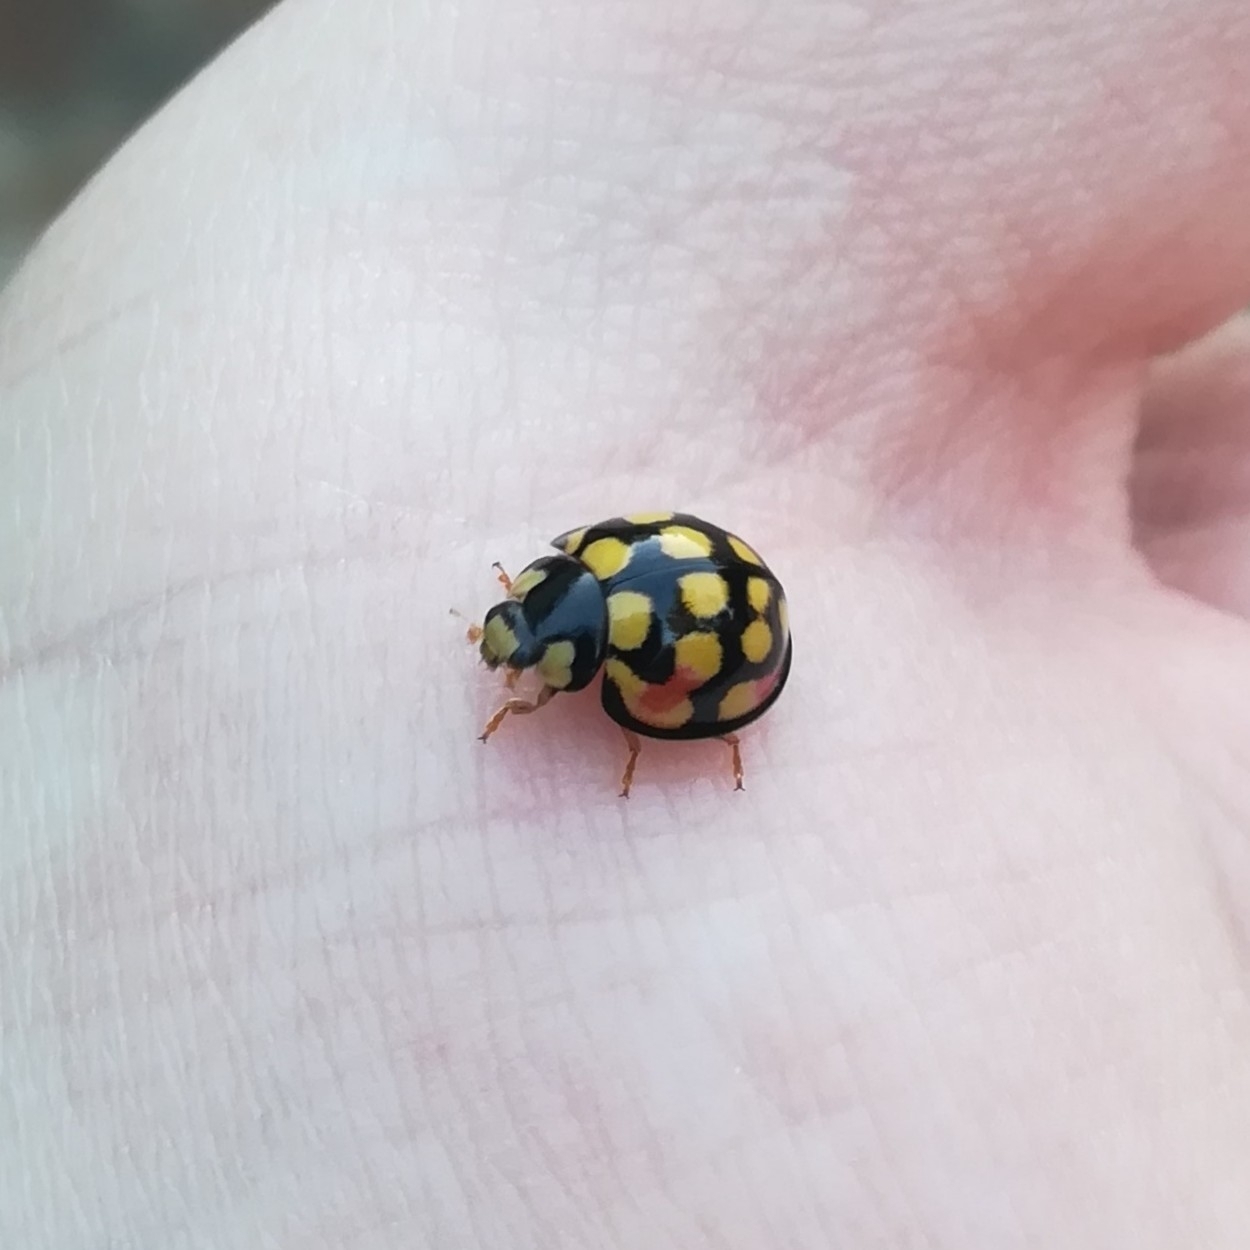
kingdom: Animalia
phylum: Arthropoda
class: Insecta
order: Coleoptera
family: Coccinellidae
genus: Cheilomenes
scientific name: Cheilomenes sulphurea
